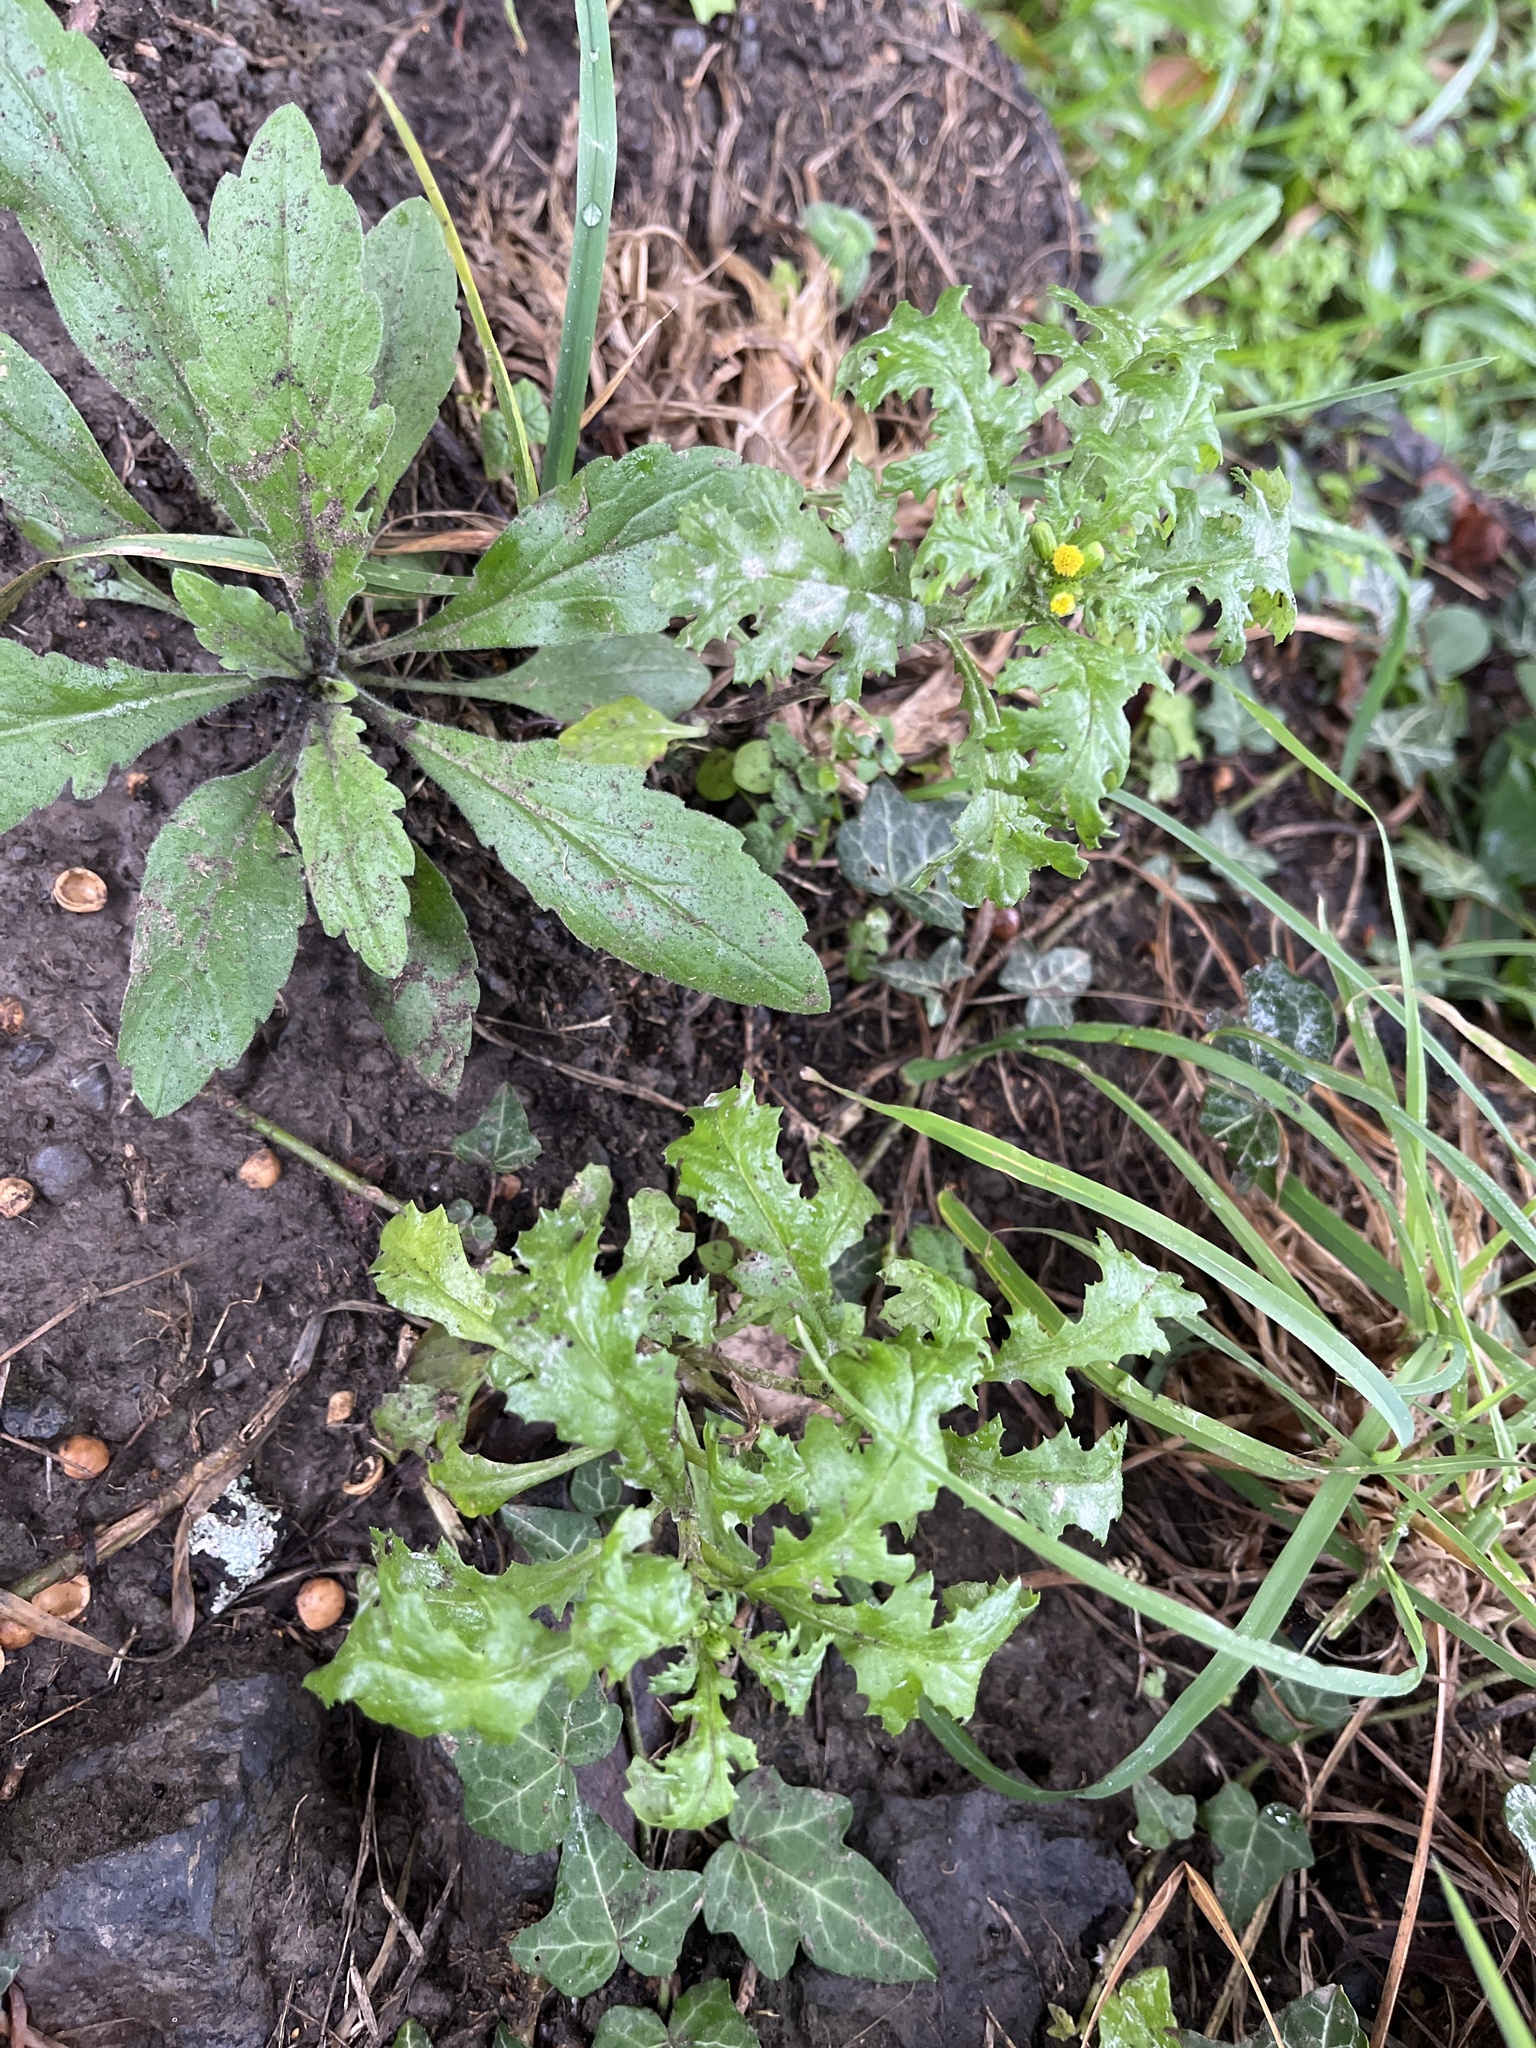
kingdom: Plantae
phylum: Tracheophyta
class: Magnoliopsida
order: Asterales
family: Asteraceae
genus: Senecio
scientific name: Senecio vulgaris
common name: Old-man-in-the-spring
